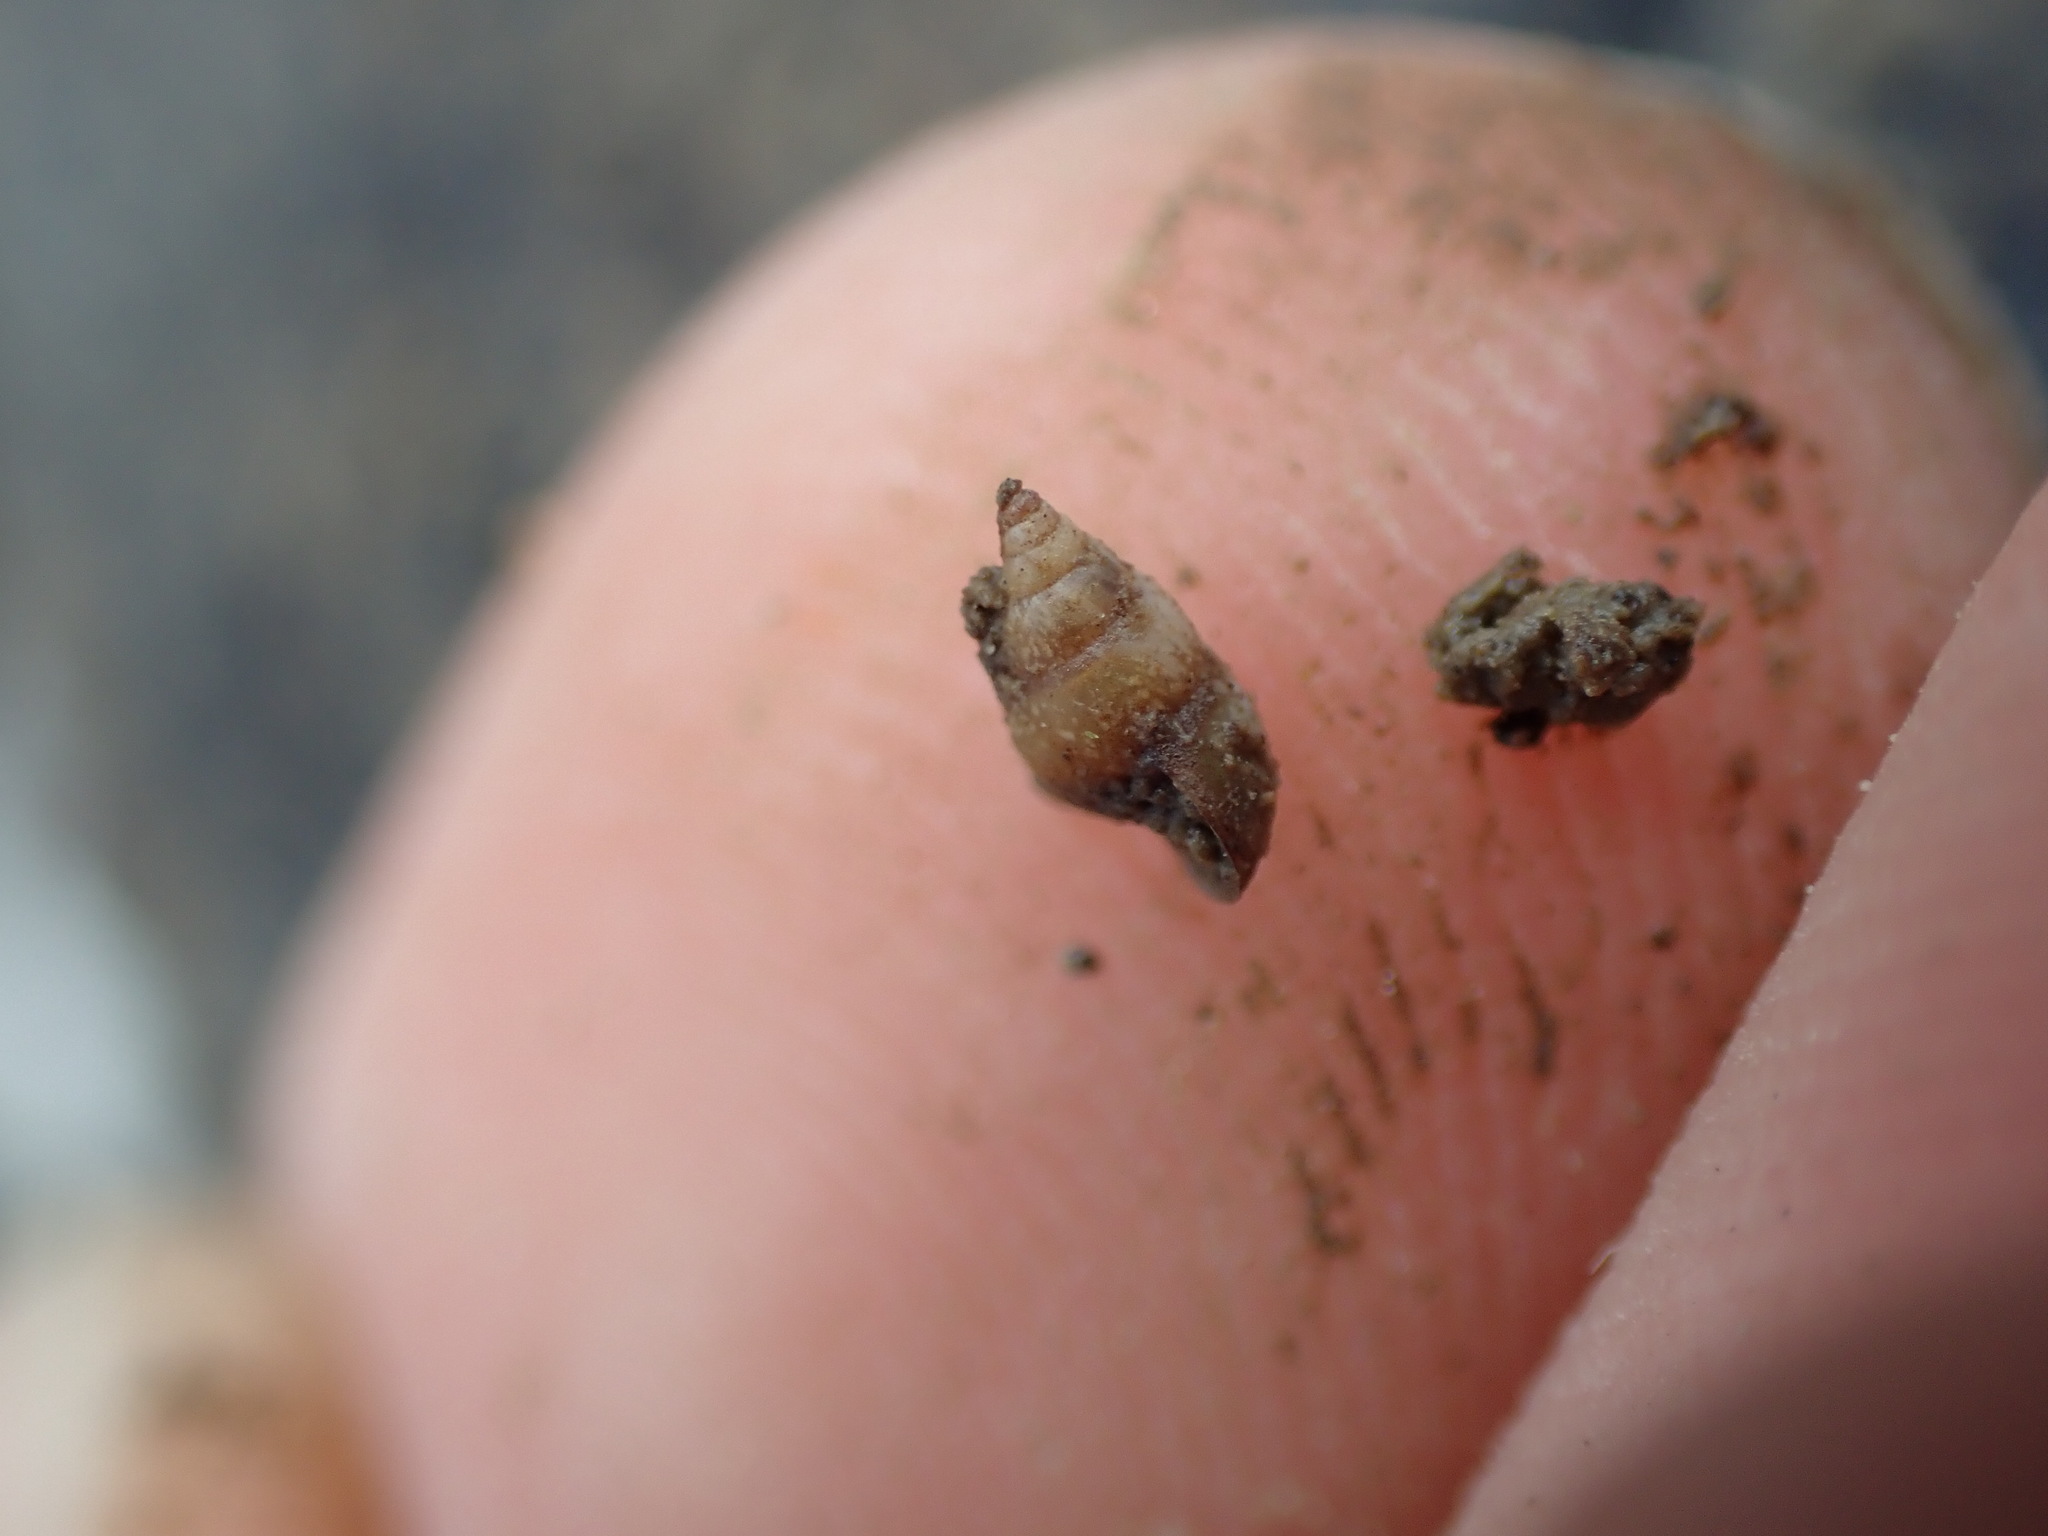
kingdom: Animalia
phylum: Mollusca
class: Gastropoda
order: Littorinimorpha
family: Tateidae
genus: Potamopyrgus
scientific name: Potamopyrgus estuarinus
